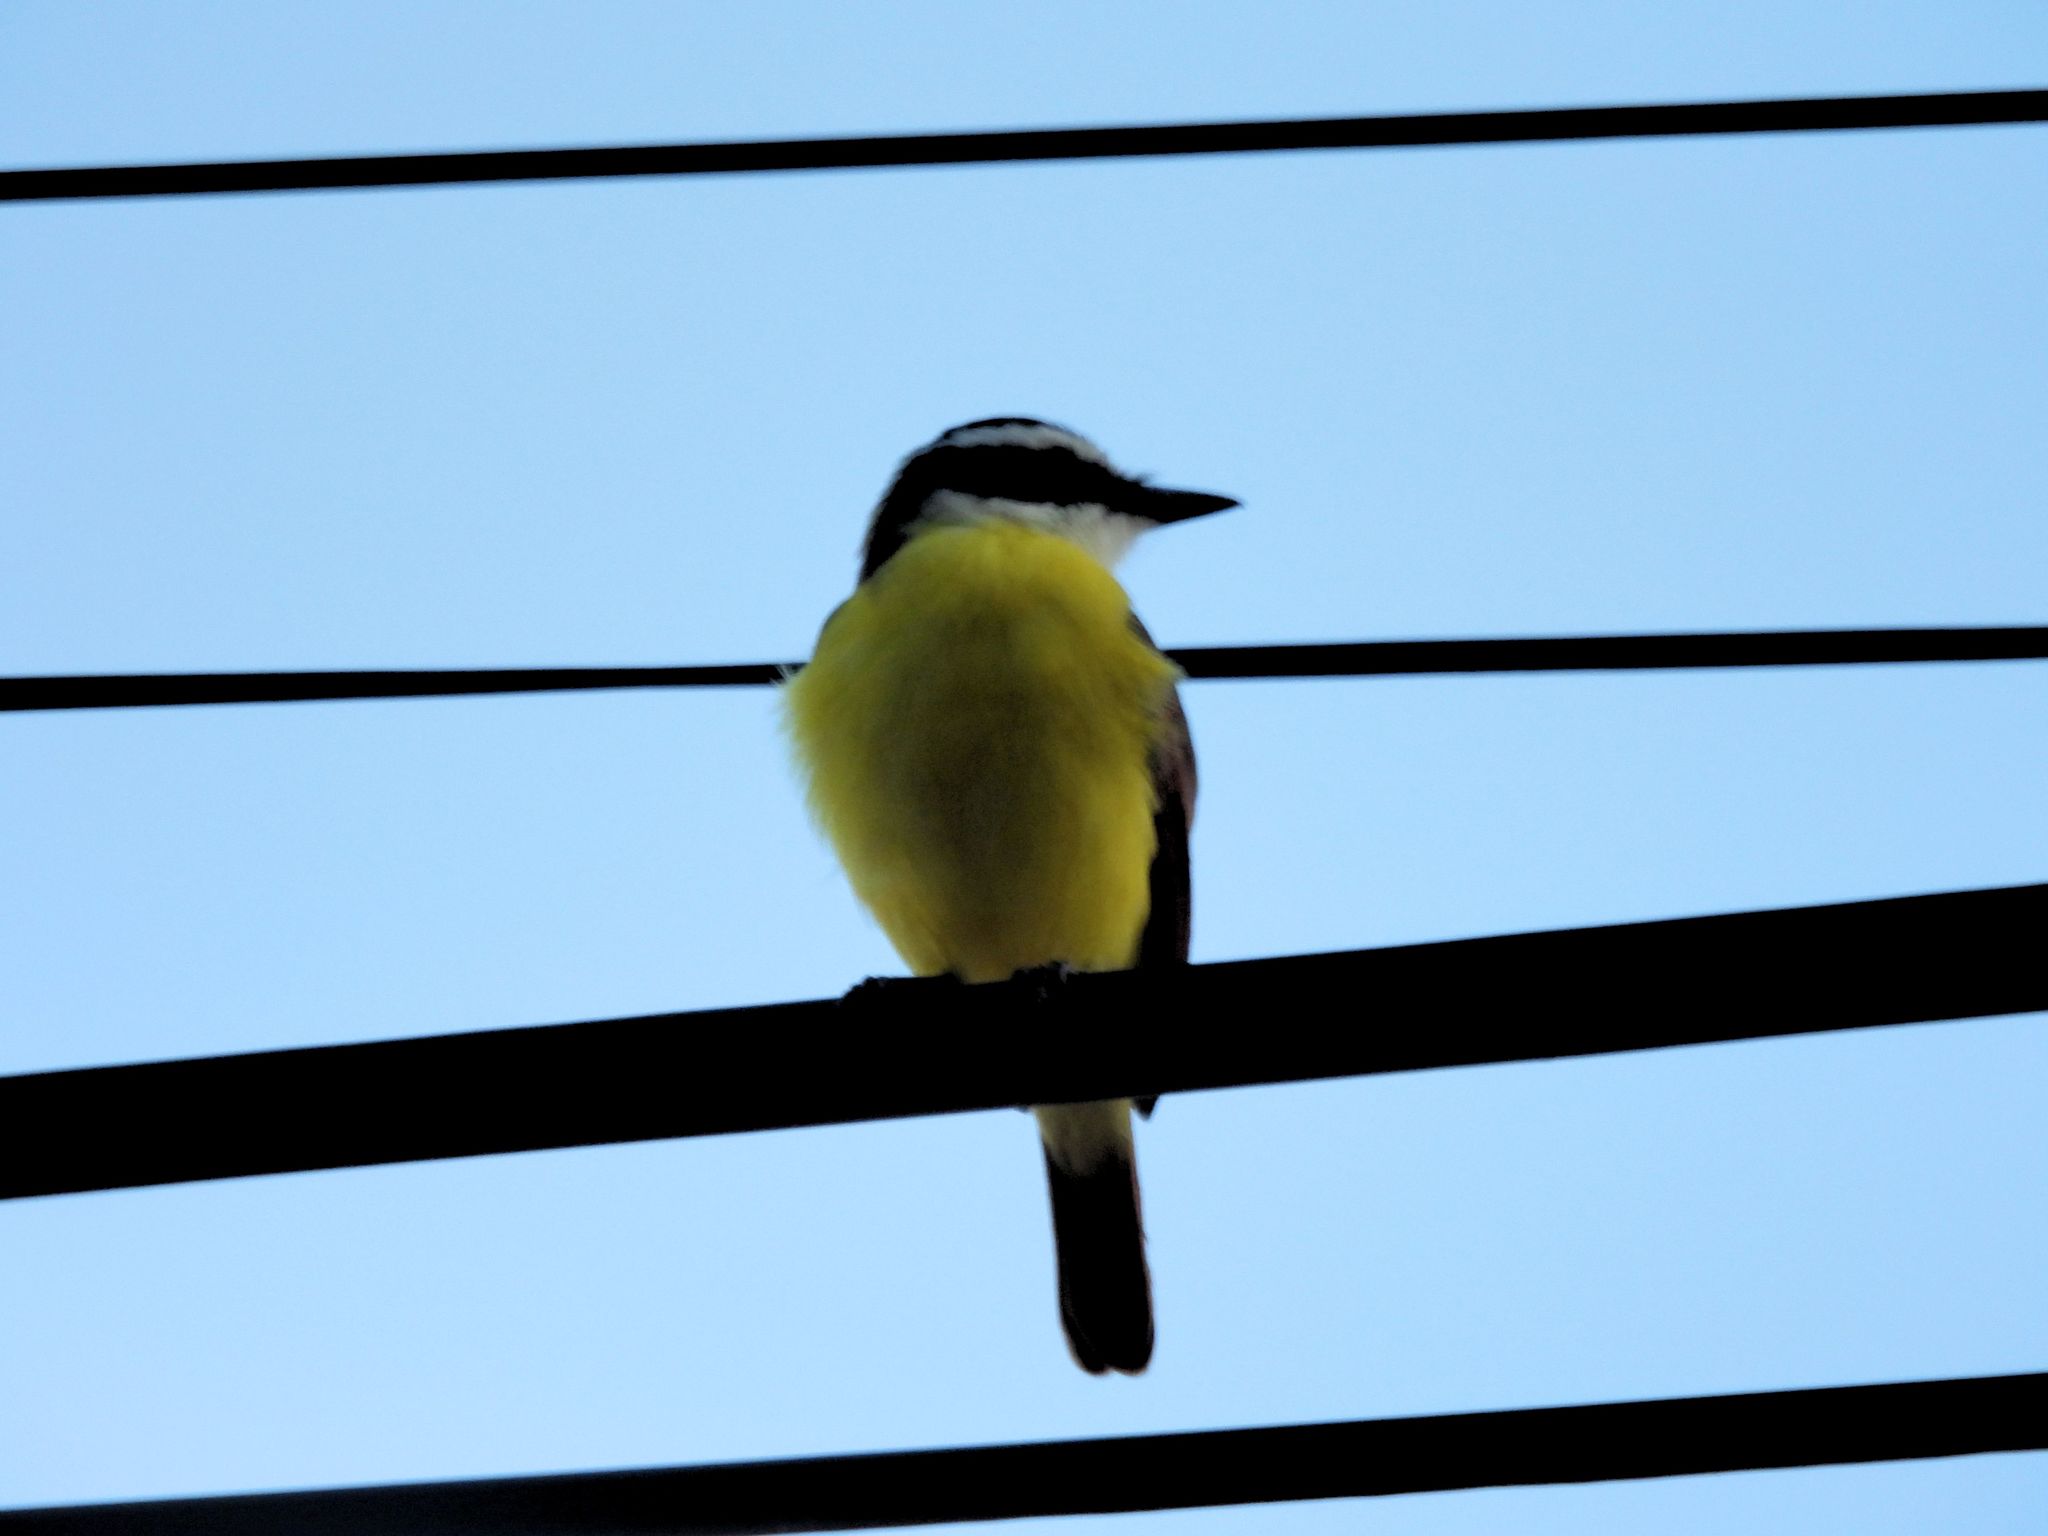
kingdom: Animalia
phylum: Chordata
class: Aves
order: Passeriformes
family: Tyrannidae
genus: Pitangus
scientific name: Pitangus sulphuratus
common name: Great kiskadee
